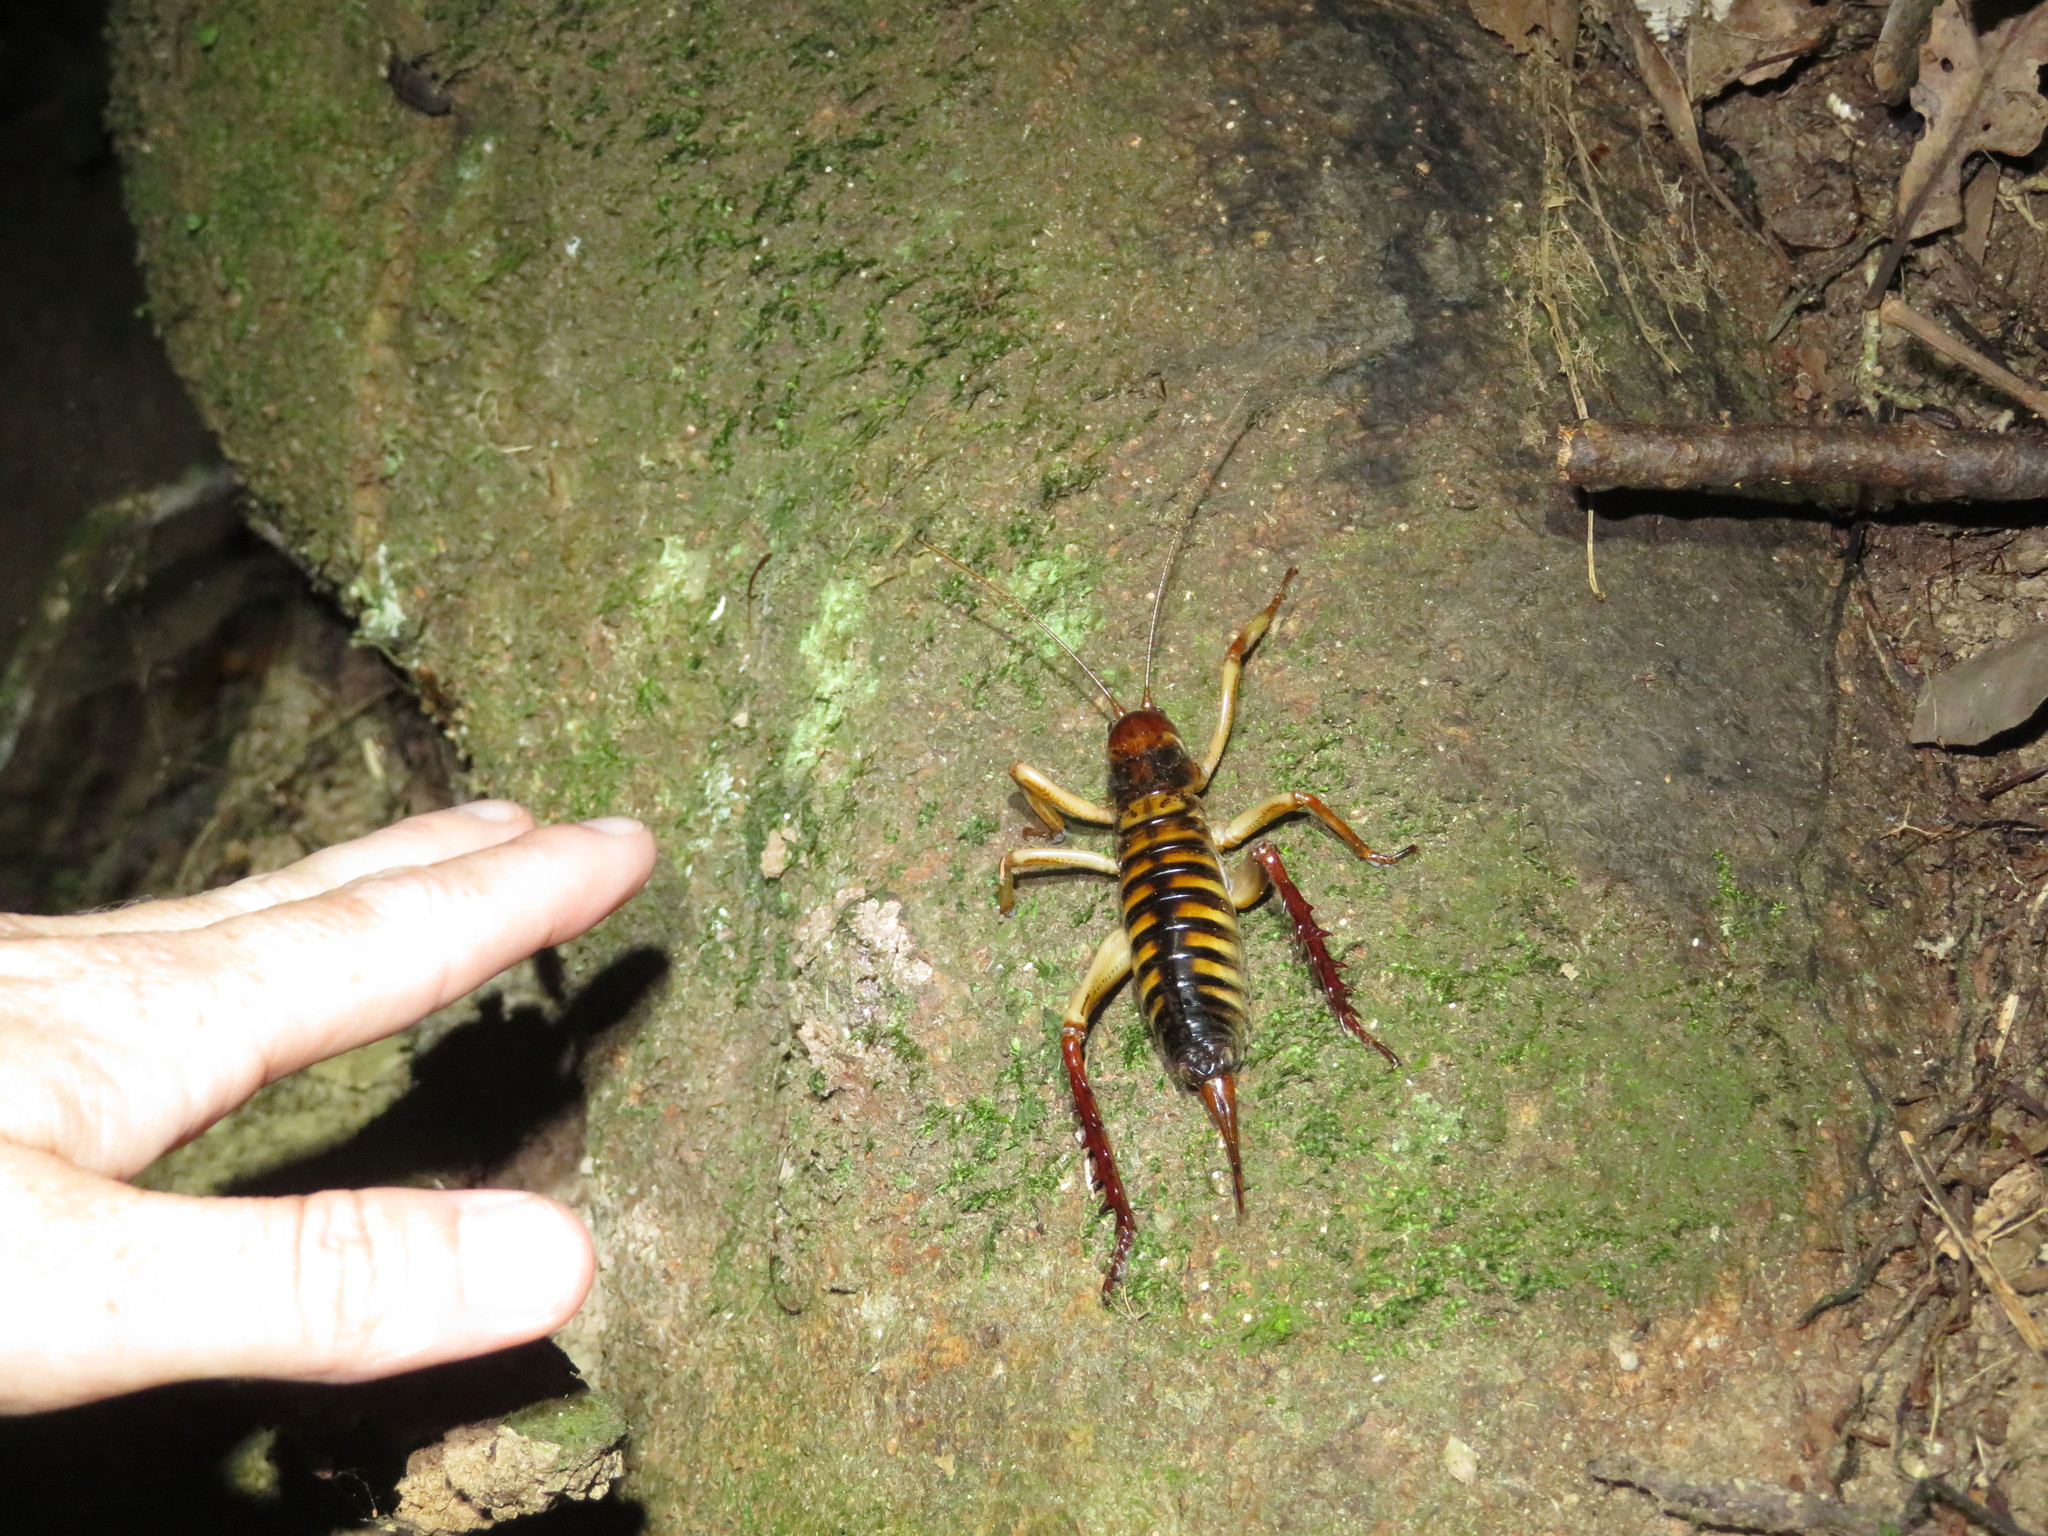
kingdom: Animalia
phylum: Arthropoda
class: Insecta
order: Orthoptera
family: Anostostomatidae
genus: Hemideina
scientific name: Hemideina crassidens
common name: Wellington tree weta
